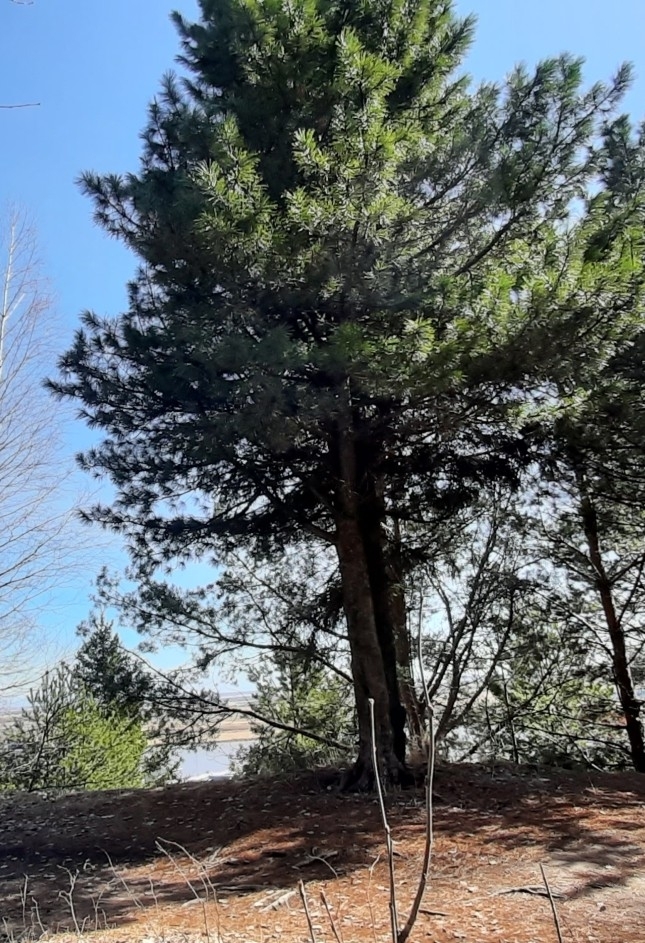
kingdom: Plantae
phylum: Tracheophyta
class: Pinopsida
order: Pinales
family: Pinaceae
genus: Pinus
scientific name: Pinus sibirica
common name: Siberian pine
